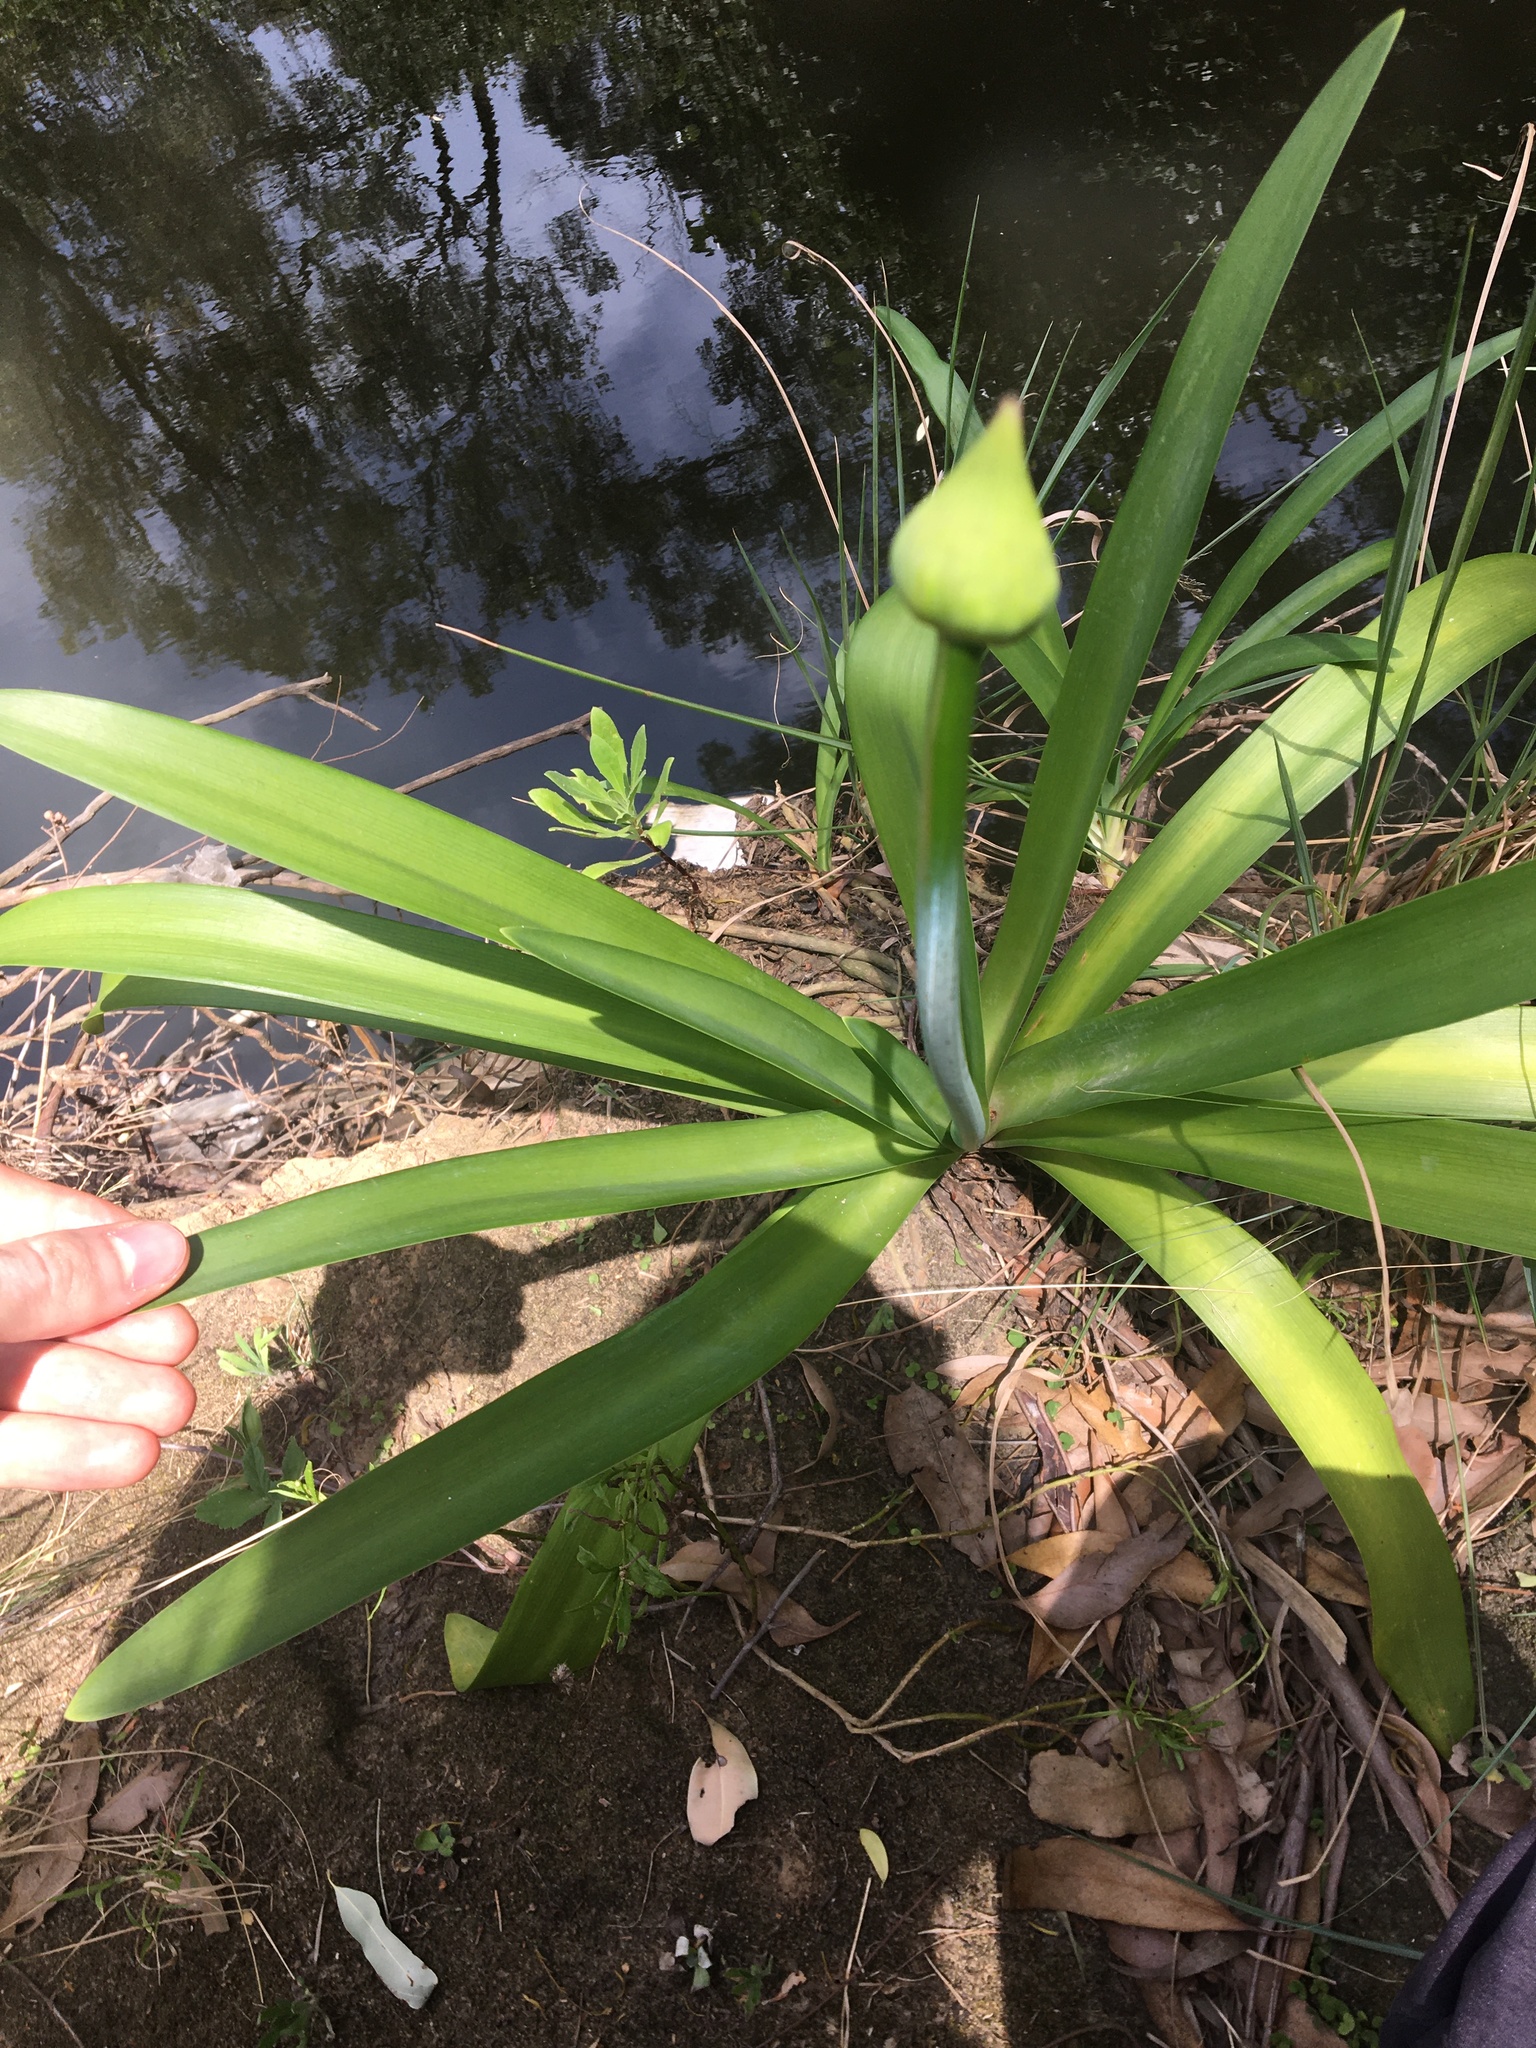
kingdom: Plantae
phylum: Tracheophyta
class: Liliopsida
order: Asparagales
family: Amaryllidaceae
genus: Agapanthus
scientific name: Agapanthus praecox
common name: African-lily
